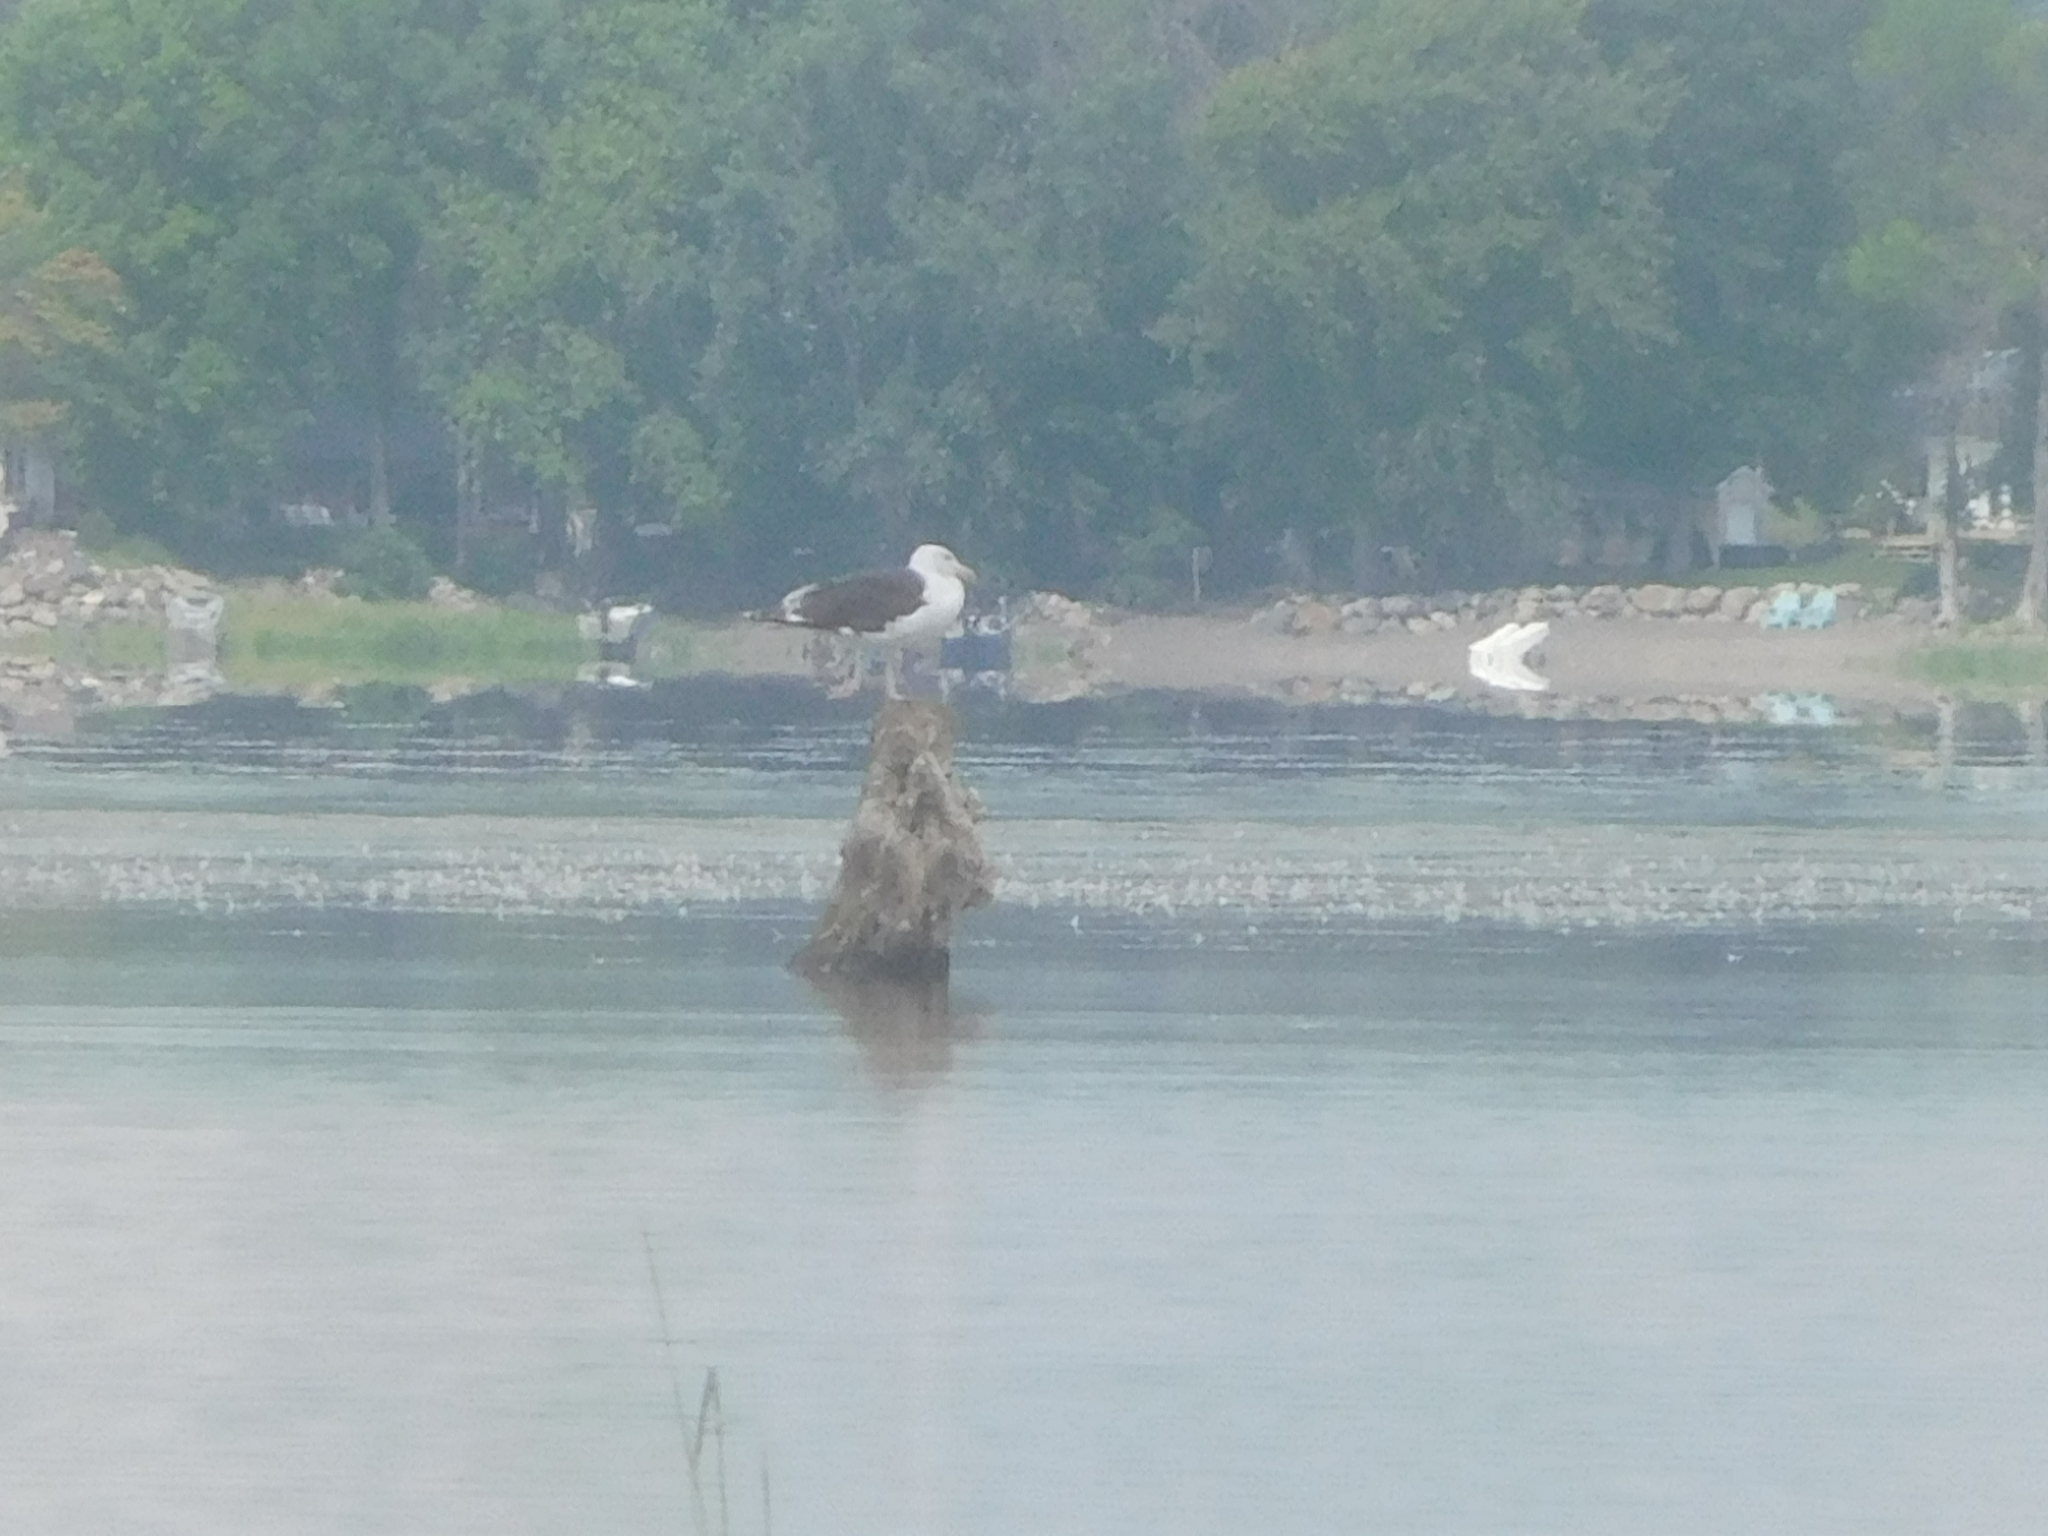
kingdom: Animalia
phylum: Chordata
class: Aves
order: Charadriiformes
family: Laridae
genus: Larus
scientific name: Larus marinus
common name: Great black-backed gull
